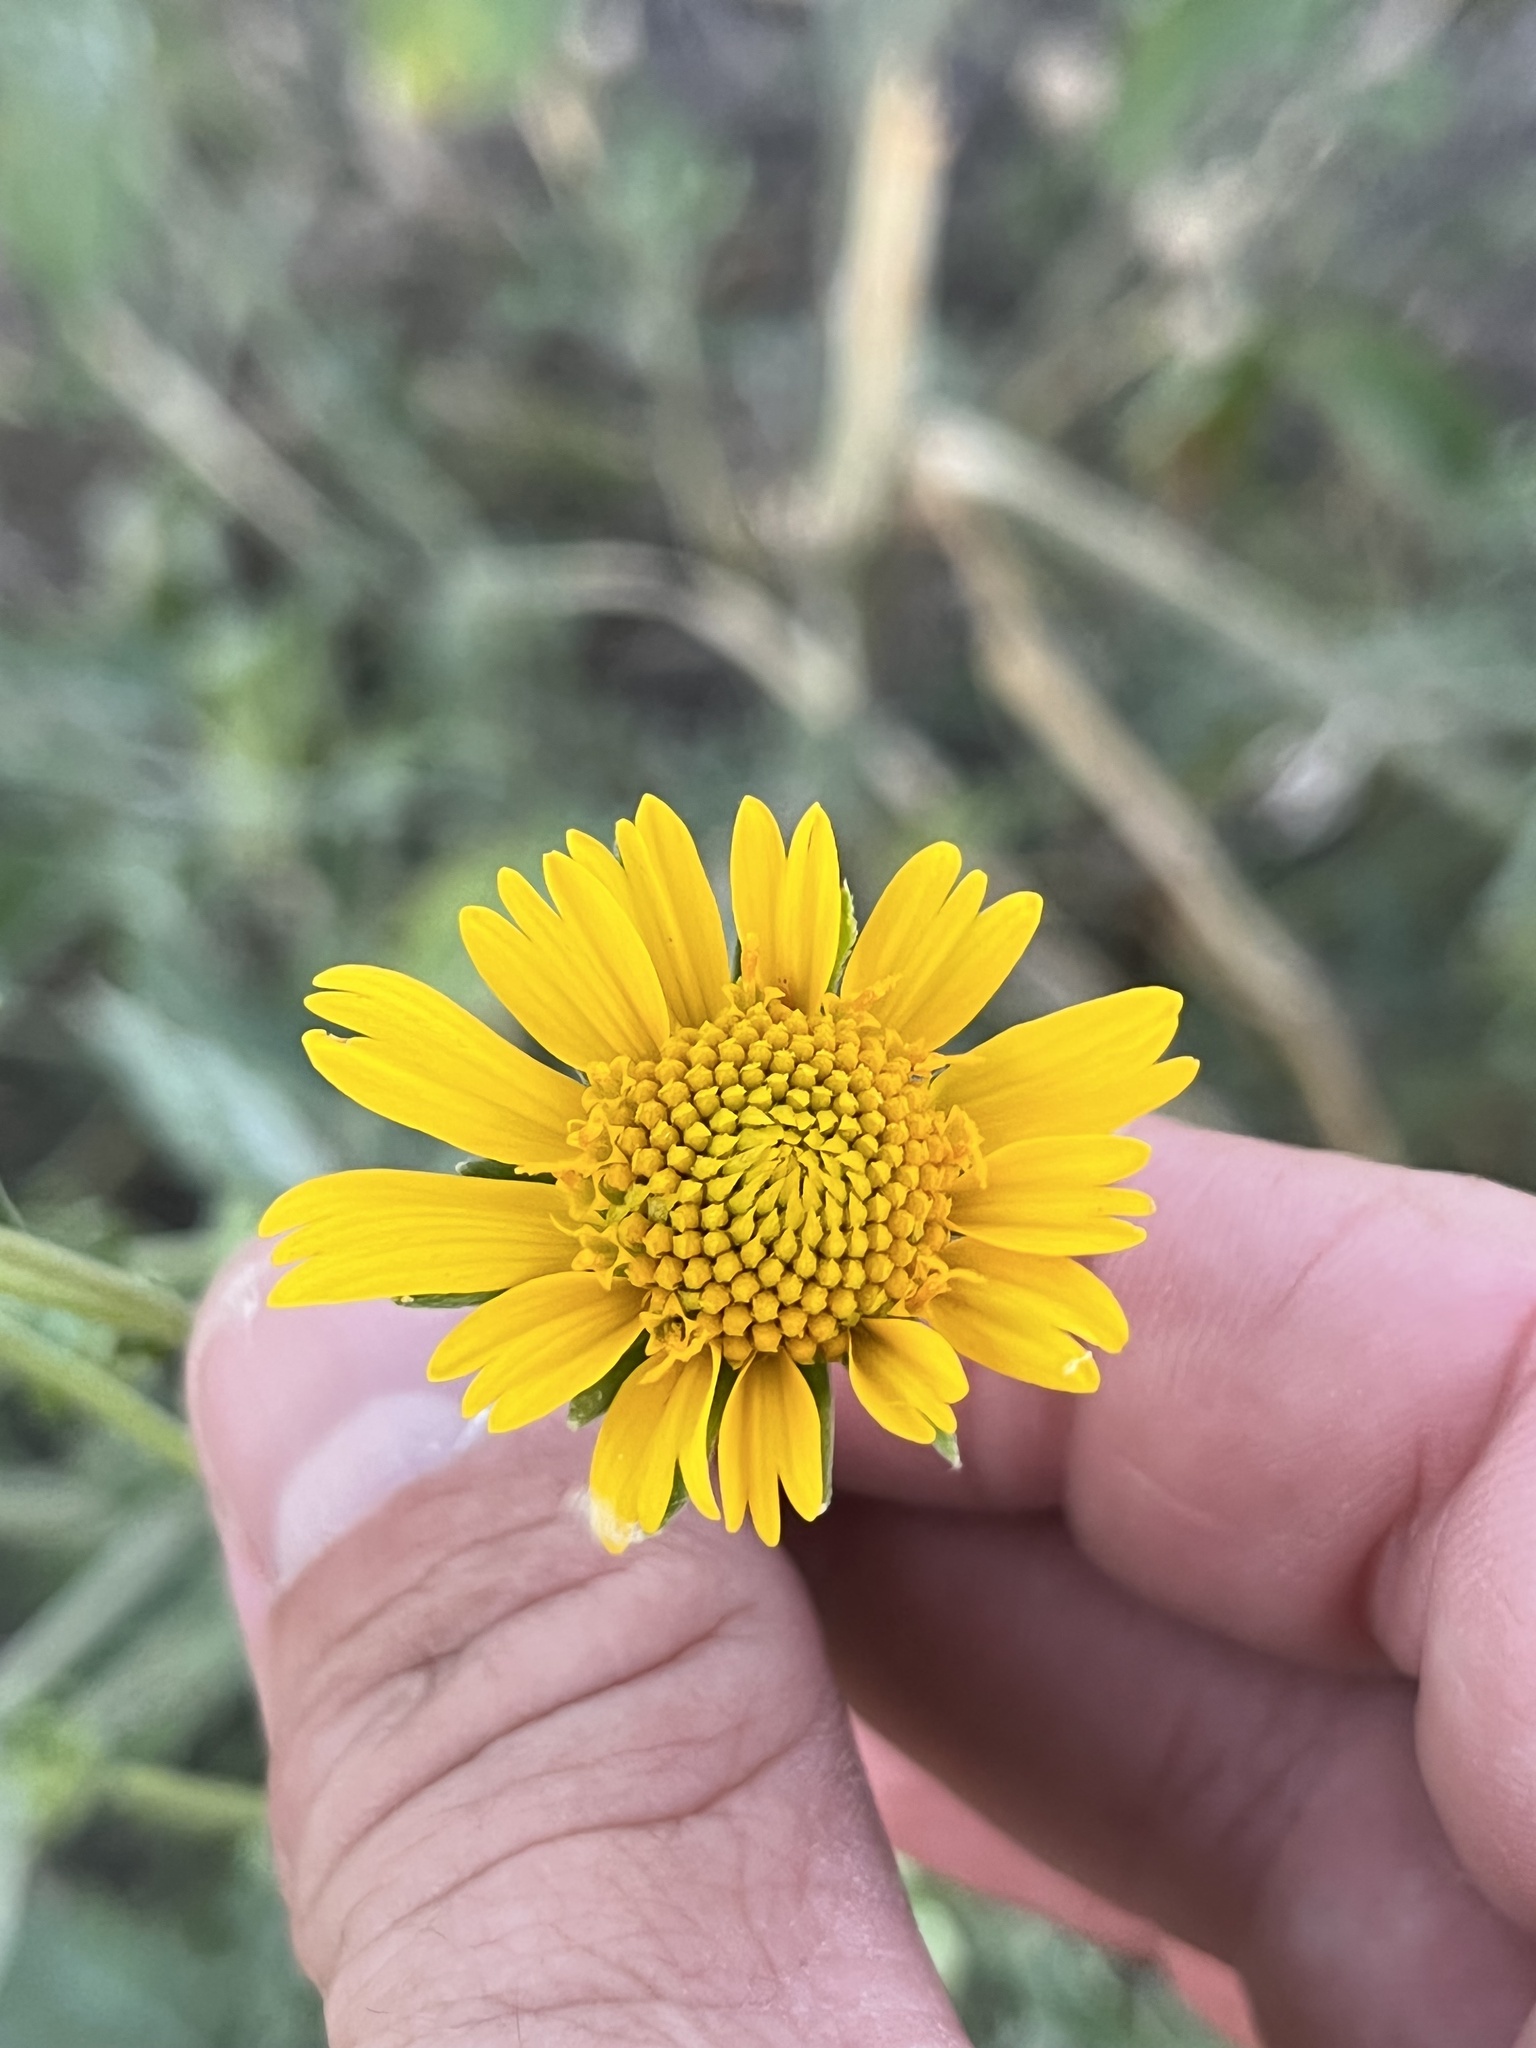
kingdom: Plantae
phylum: Tracheophyta
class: Magnoliopsida
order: Asterales
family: Asteraceae
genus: Verbesina
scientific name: Verbesina encelioides
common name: Golden crownbeard
